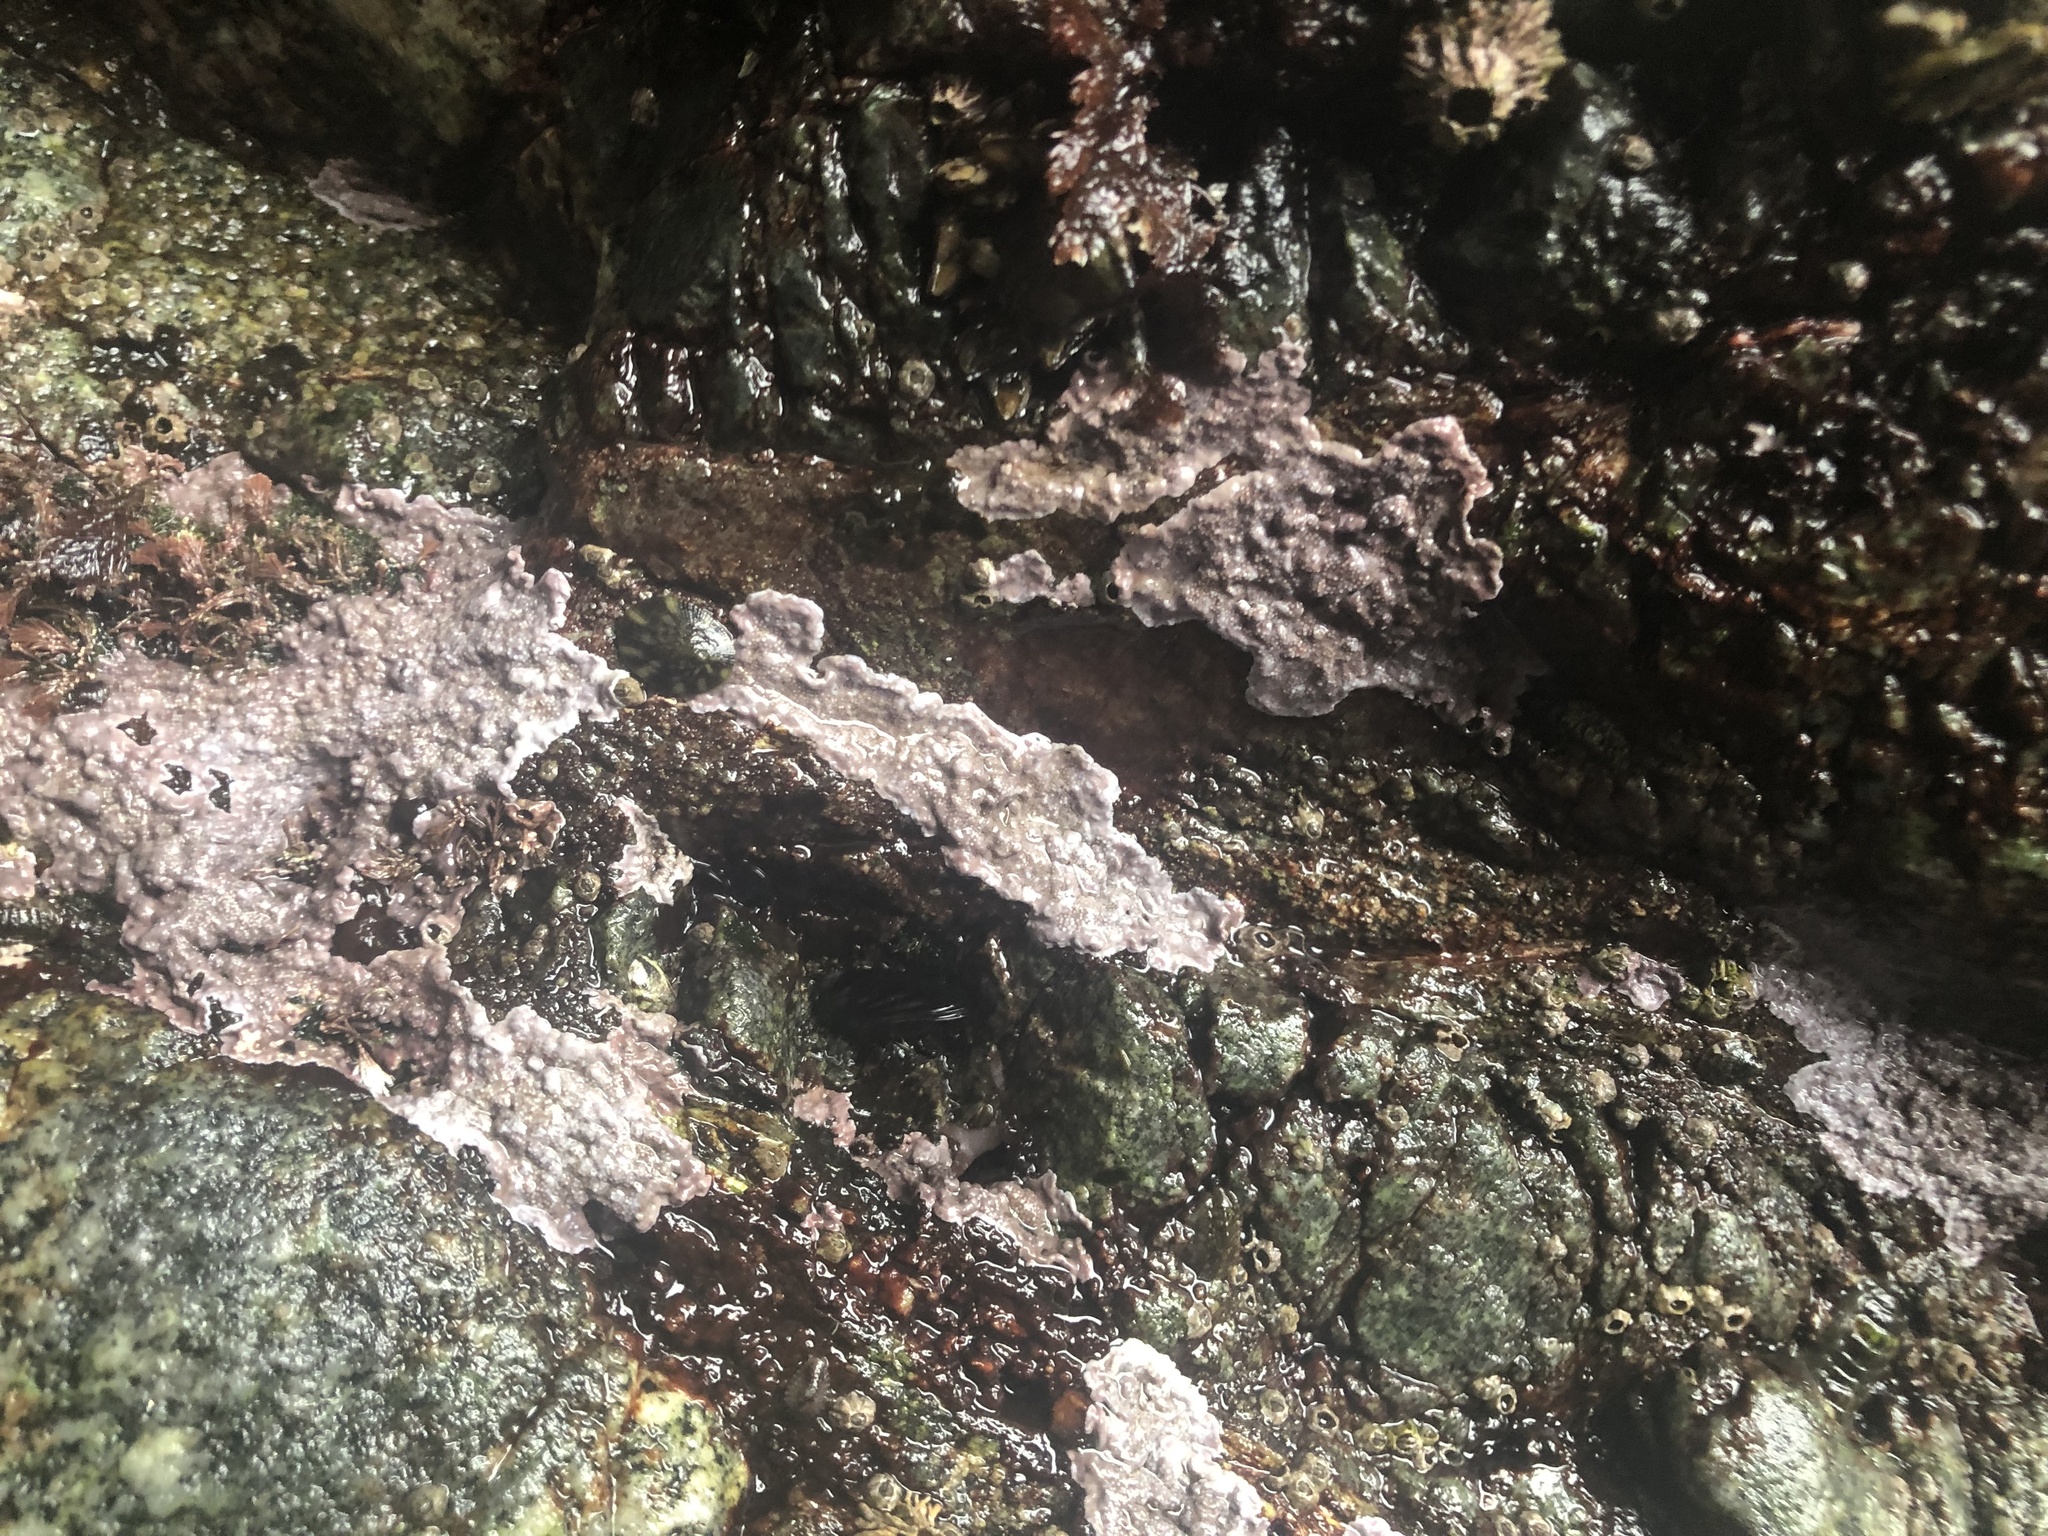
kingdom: Plantae
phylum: Rhodophyta
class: Florideophyceae
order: Corallinales
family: Corallinaceae
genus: Chamberlainium
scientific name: Chamberlainium tumidum
